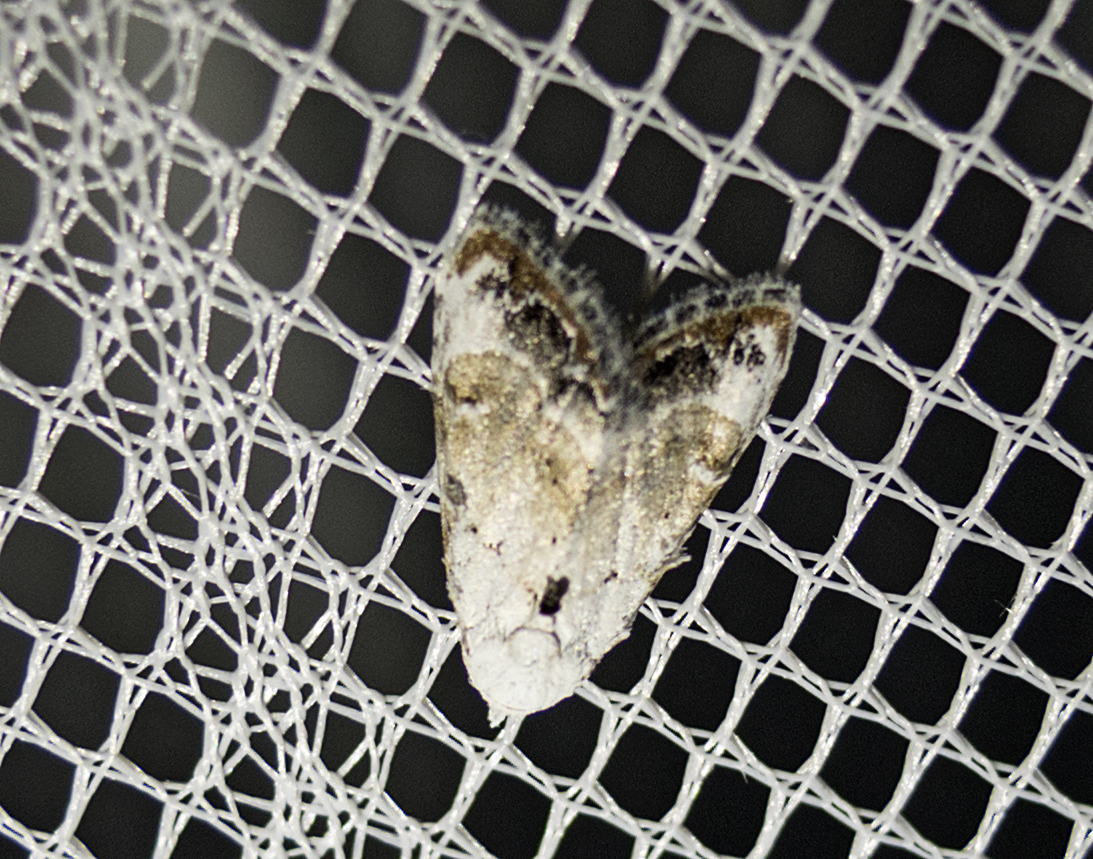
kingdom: Animalia
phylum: Arthropoda
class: Insecta
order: Lepidoptera
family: Nolidae
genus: Nola
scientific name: Nola chlamitulalis
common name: Jersey black arches
